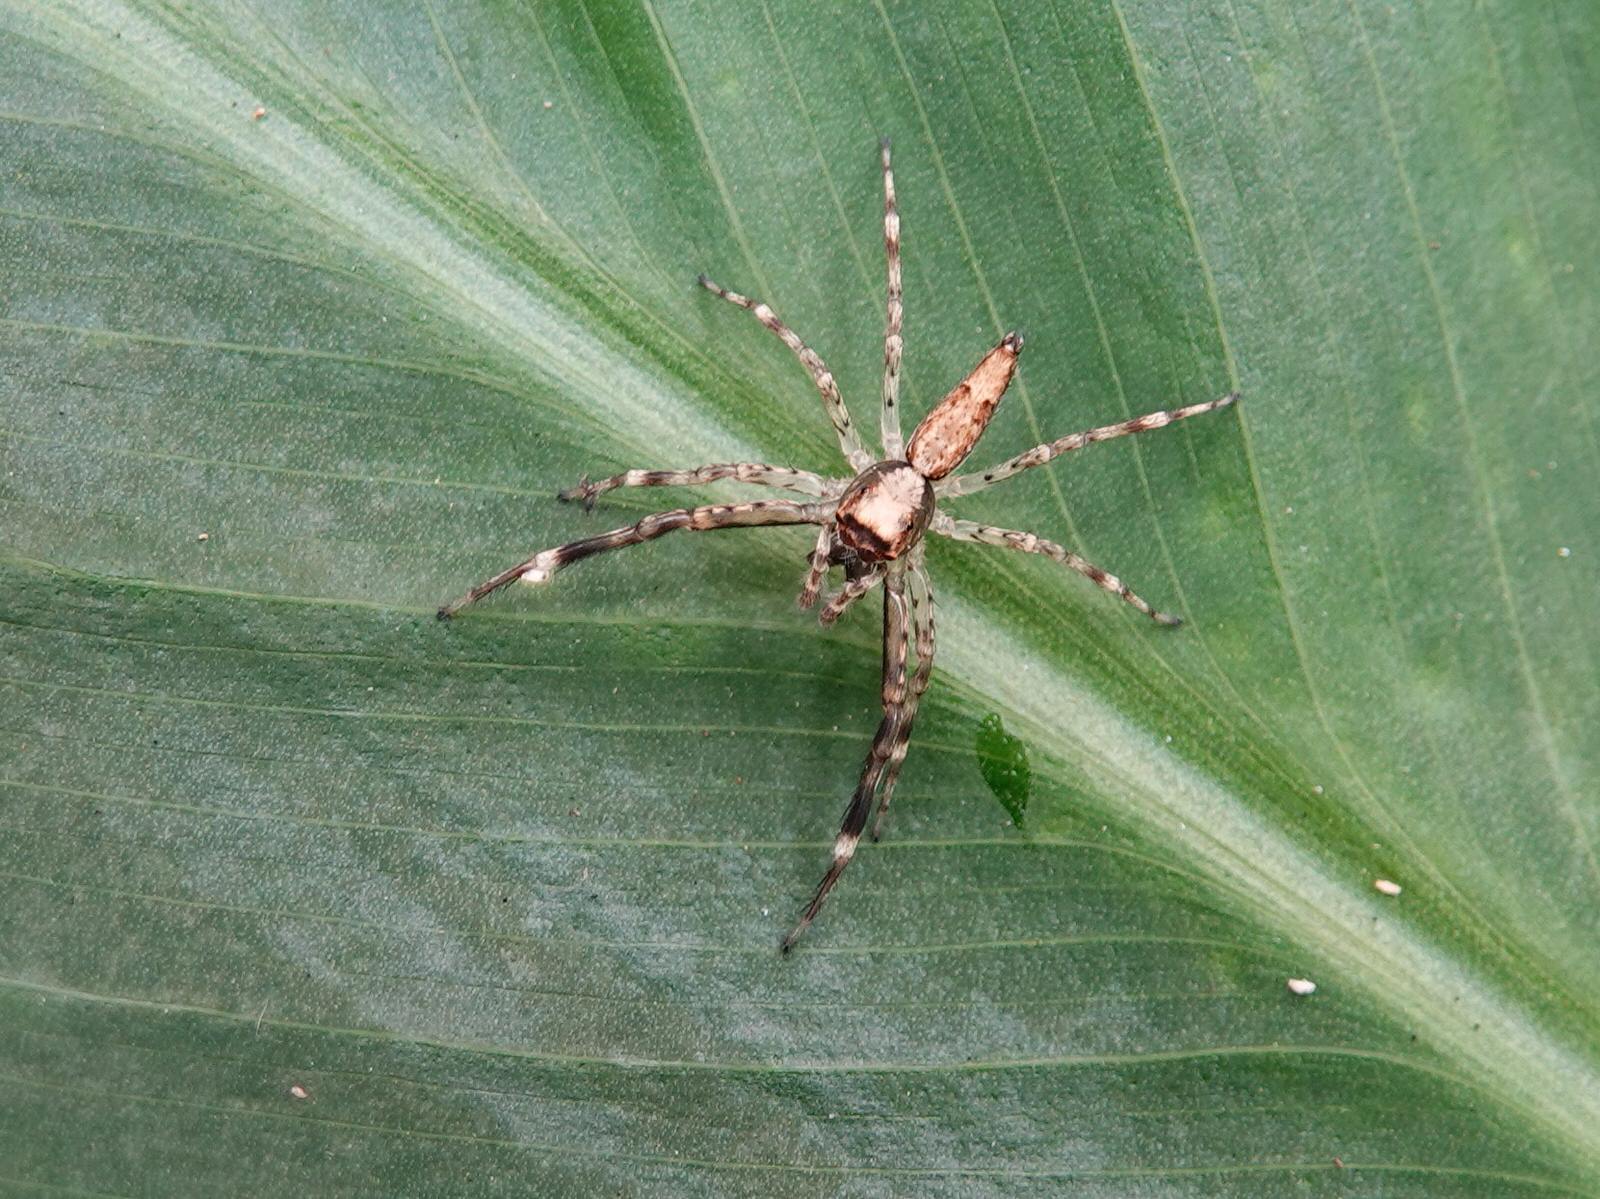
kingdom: Animalia
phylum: Arthropoda
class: Arachnida
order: Araneae
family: Salticidae
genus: Helpis
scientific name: Helpis minitabunda
